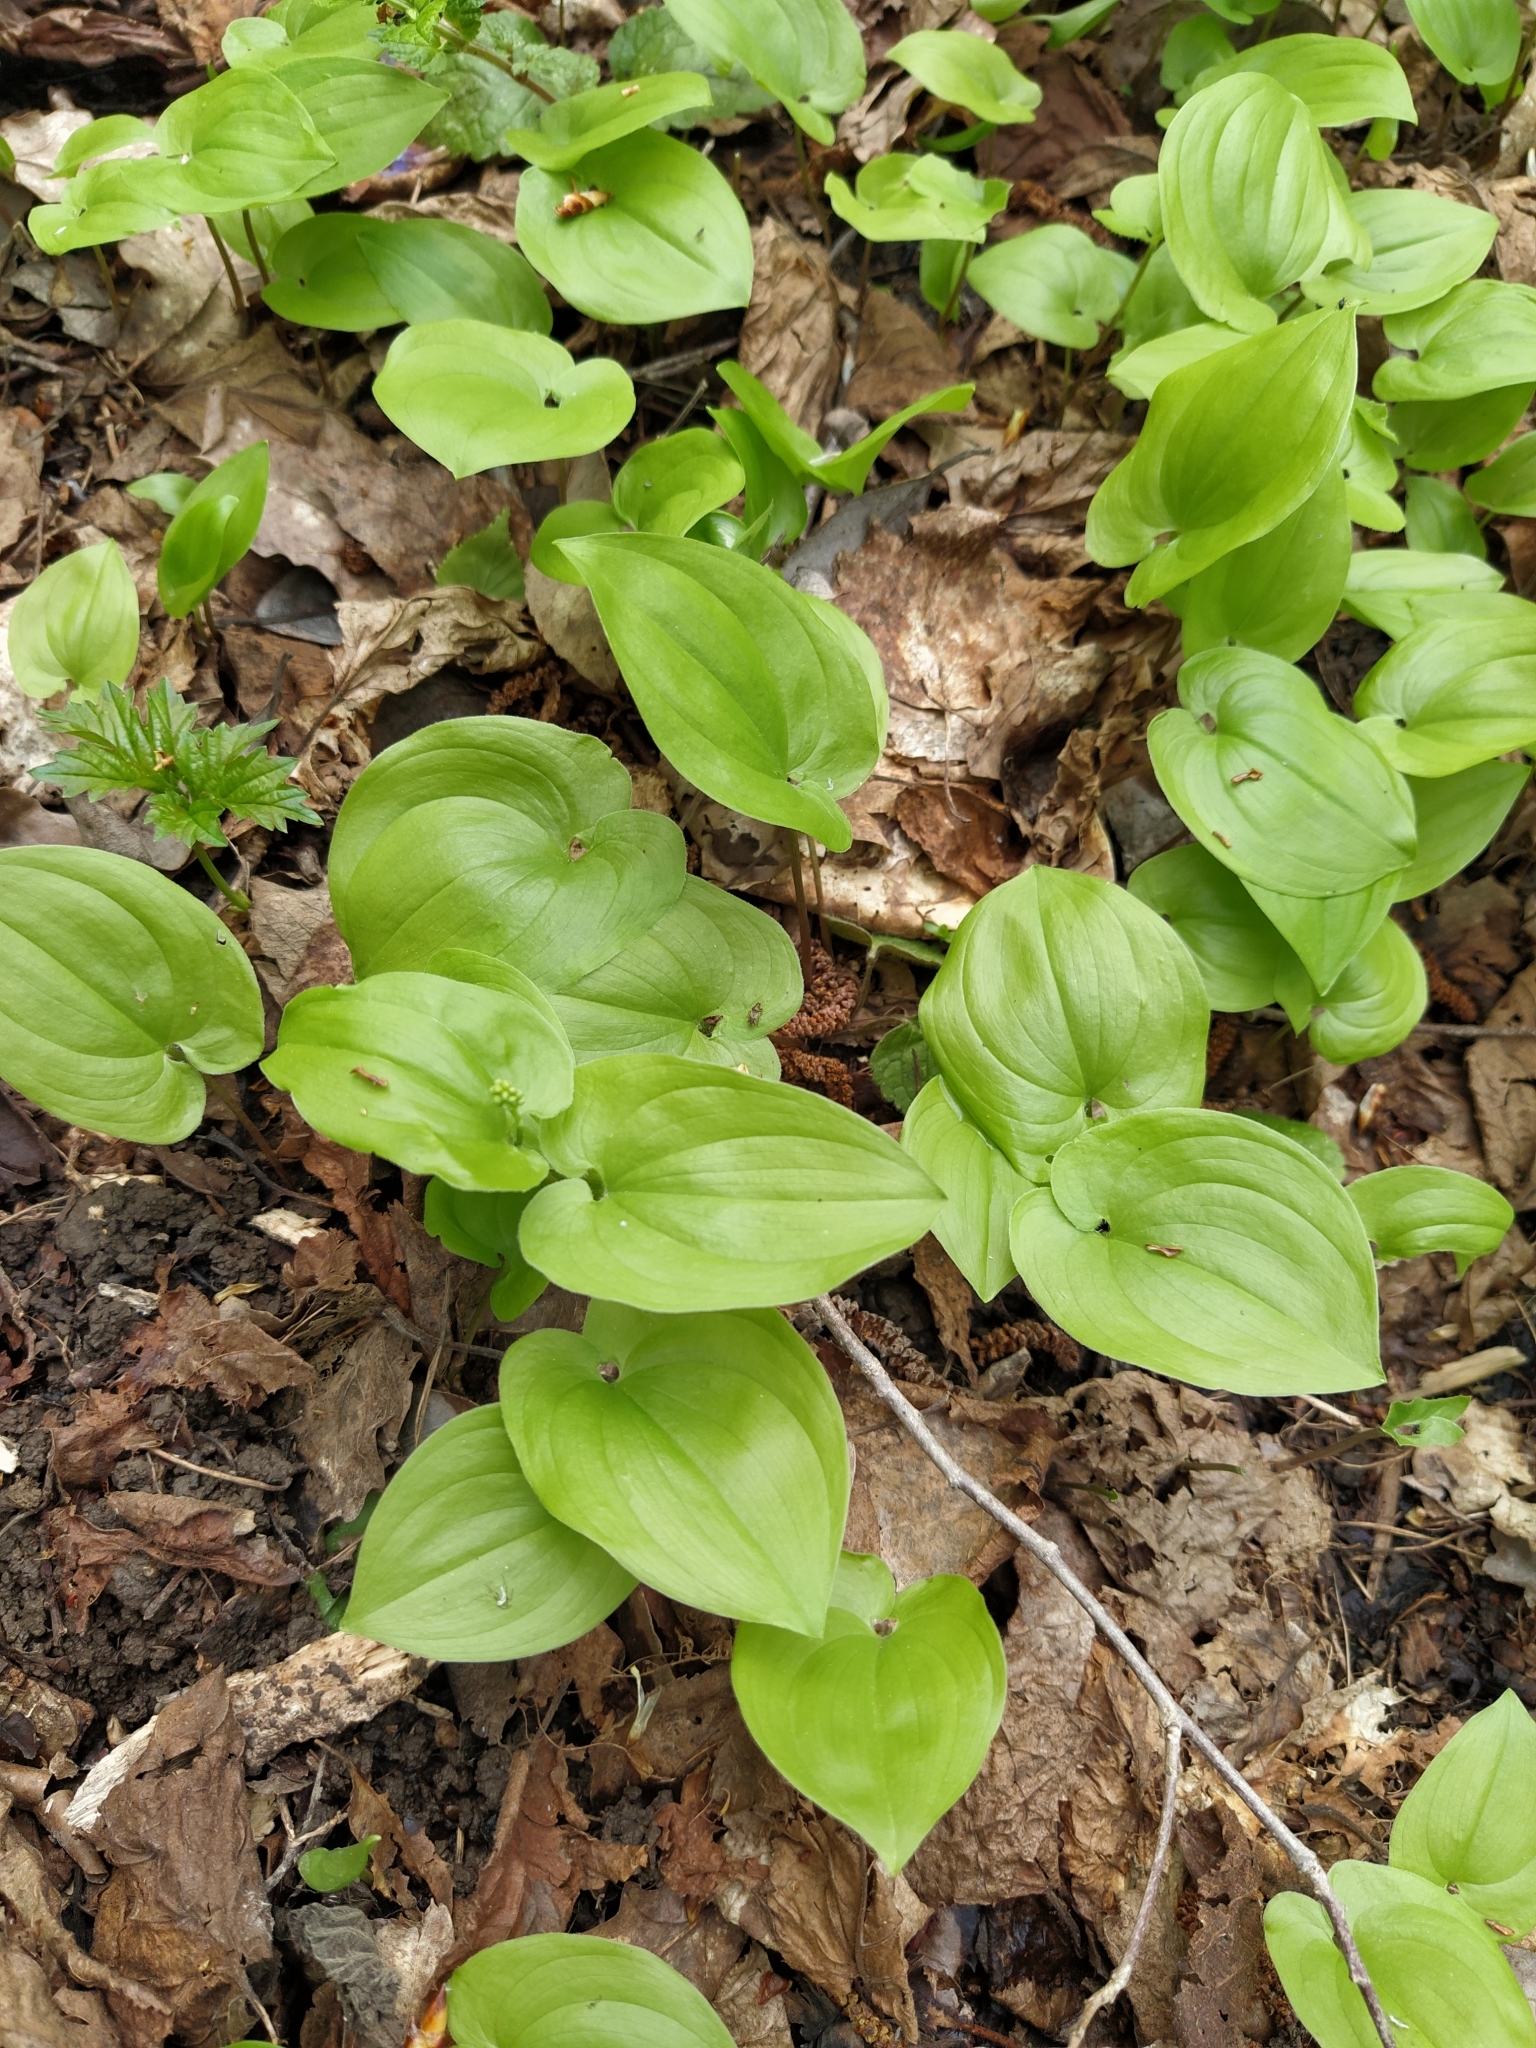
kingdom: Plantae
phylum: Tracheophyta
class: Liliopsida
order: Asparagales
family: Asparagaceae
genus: Maianthemum
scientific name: Maianthemum bifolium
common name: May lily
